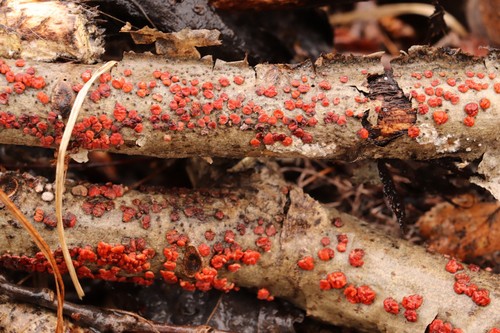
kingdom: Fungi
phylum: Basidiomycota
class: Agaricomycetes
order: Russulales
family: Peniophoraceae
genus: Peniophora
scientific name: Peniophora rufa
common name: Red tree brain fungus
